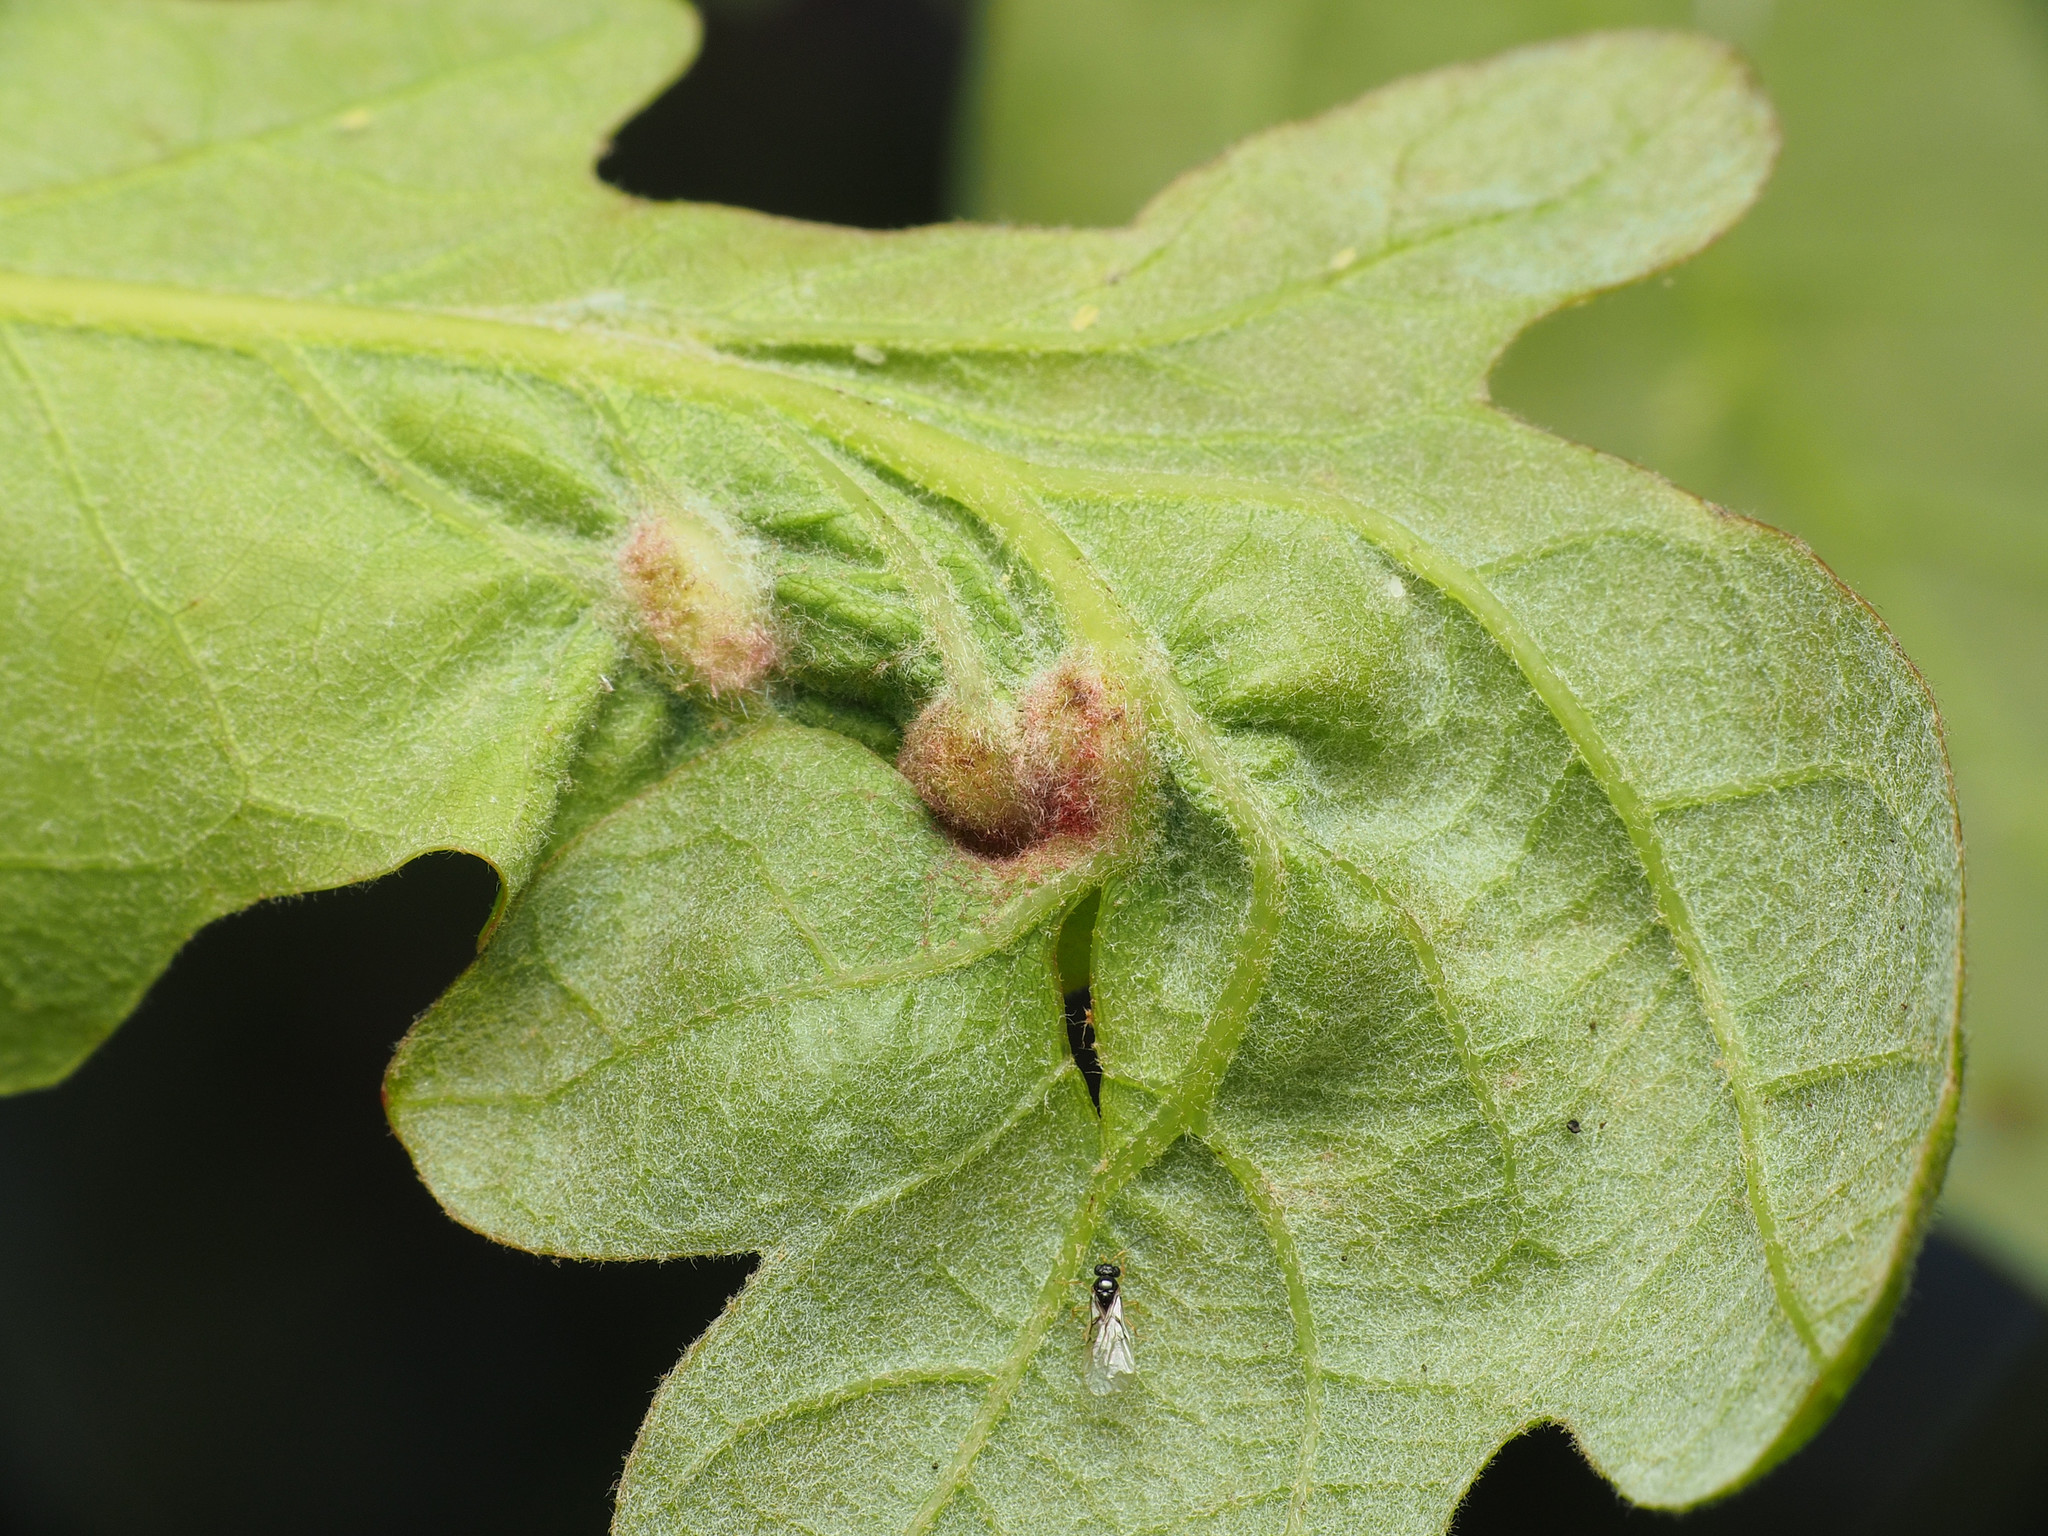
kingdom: Animalia
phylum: Arthropoda
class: Insecta
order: Hymenoptera
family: Cynipidae
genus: Andricus
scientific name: Andricus
